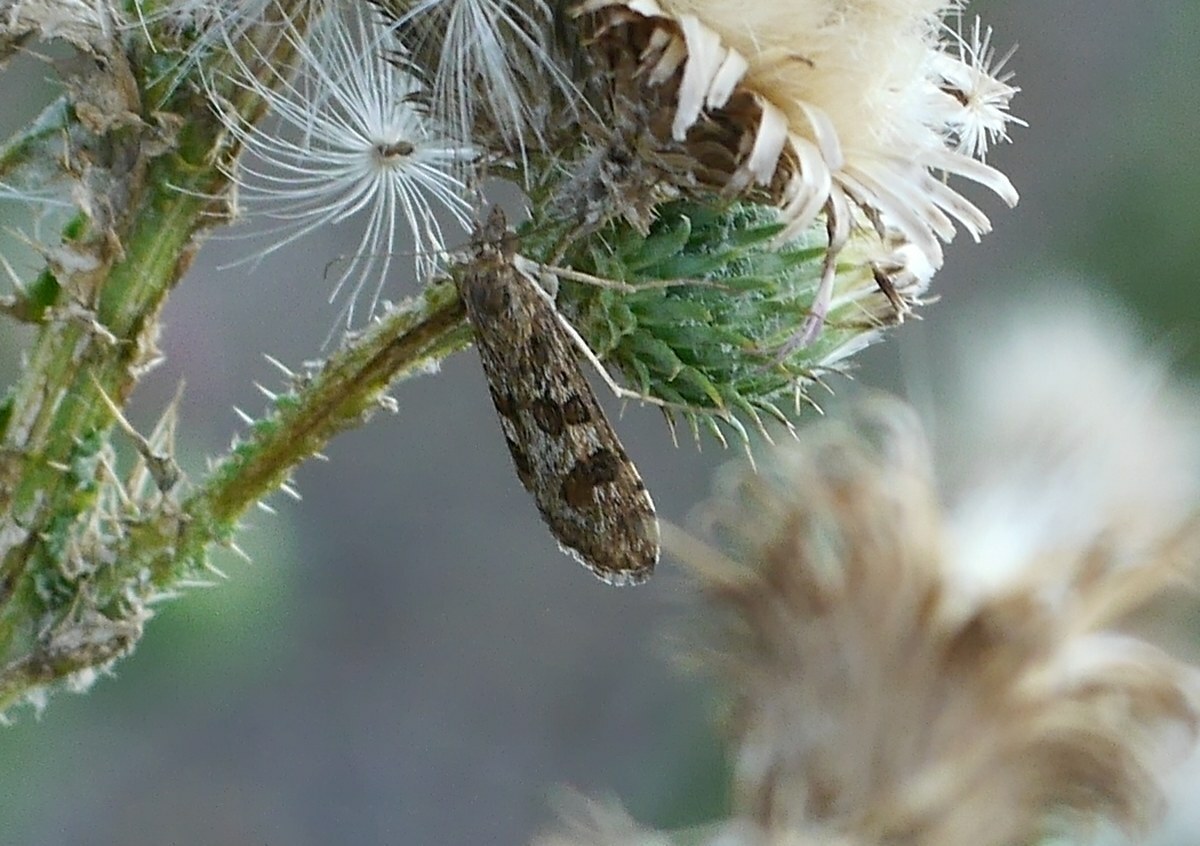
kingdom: Animalia
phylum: Arthropoda
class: Insecta
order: Lepidoptera
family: Crambidae
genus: Nomophila
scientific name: Nomophila noctuella
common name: Rush veneer
